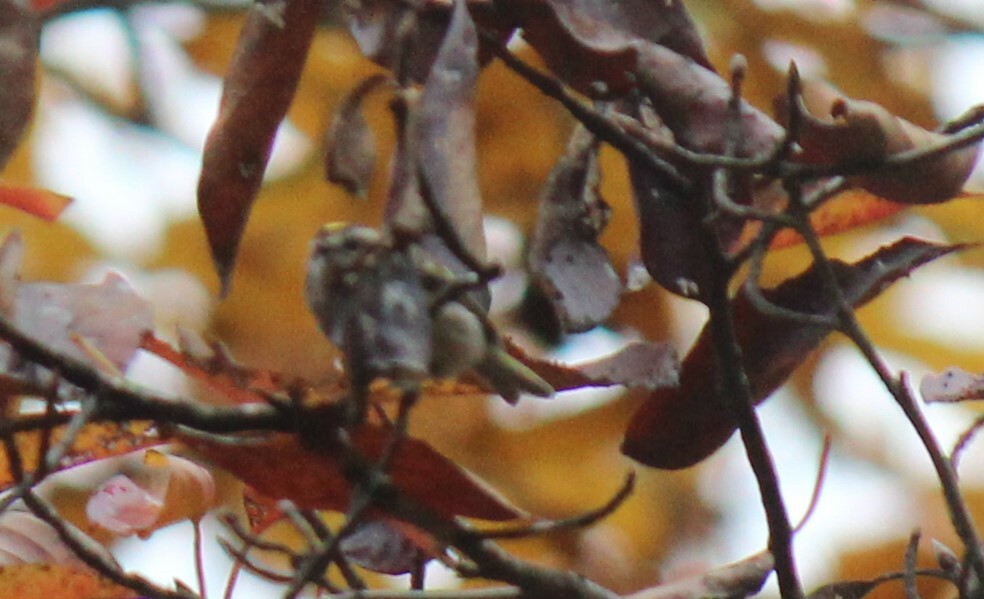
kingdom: Animalia
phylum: Chordata
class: Aves
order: Passeriformes
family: Regulidae
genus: Regulus
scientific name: Regulus satrapa
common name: Golden-crowned kinglet
